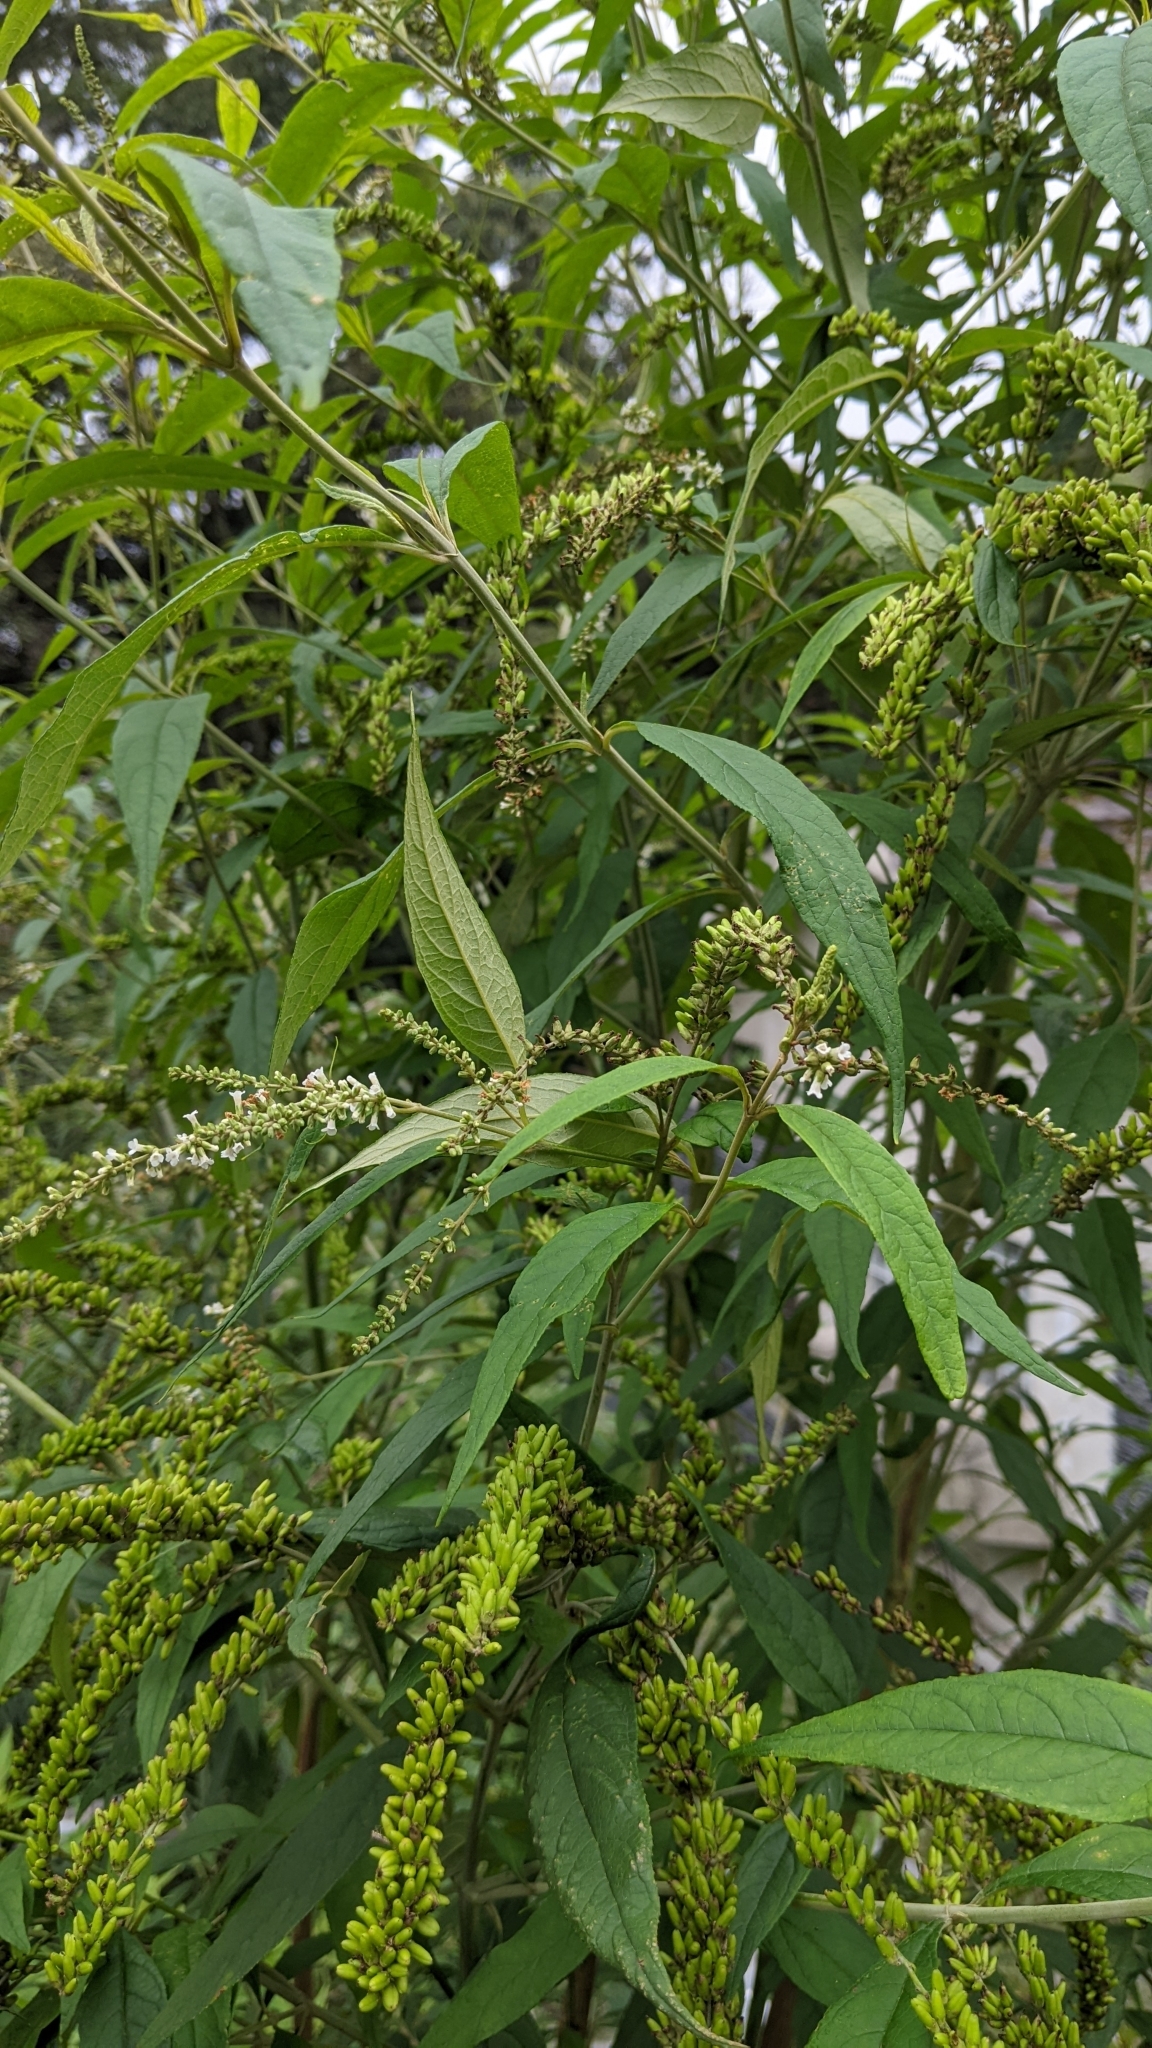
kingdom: Plantae
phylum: Tracheophyta
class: Magnoliopsida
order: Lamiales
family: Scrophulariaceae
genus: Buddleja
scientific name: Buddleja asiatica
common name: Dog tail
